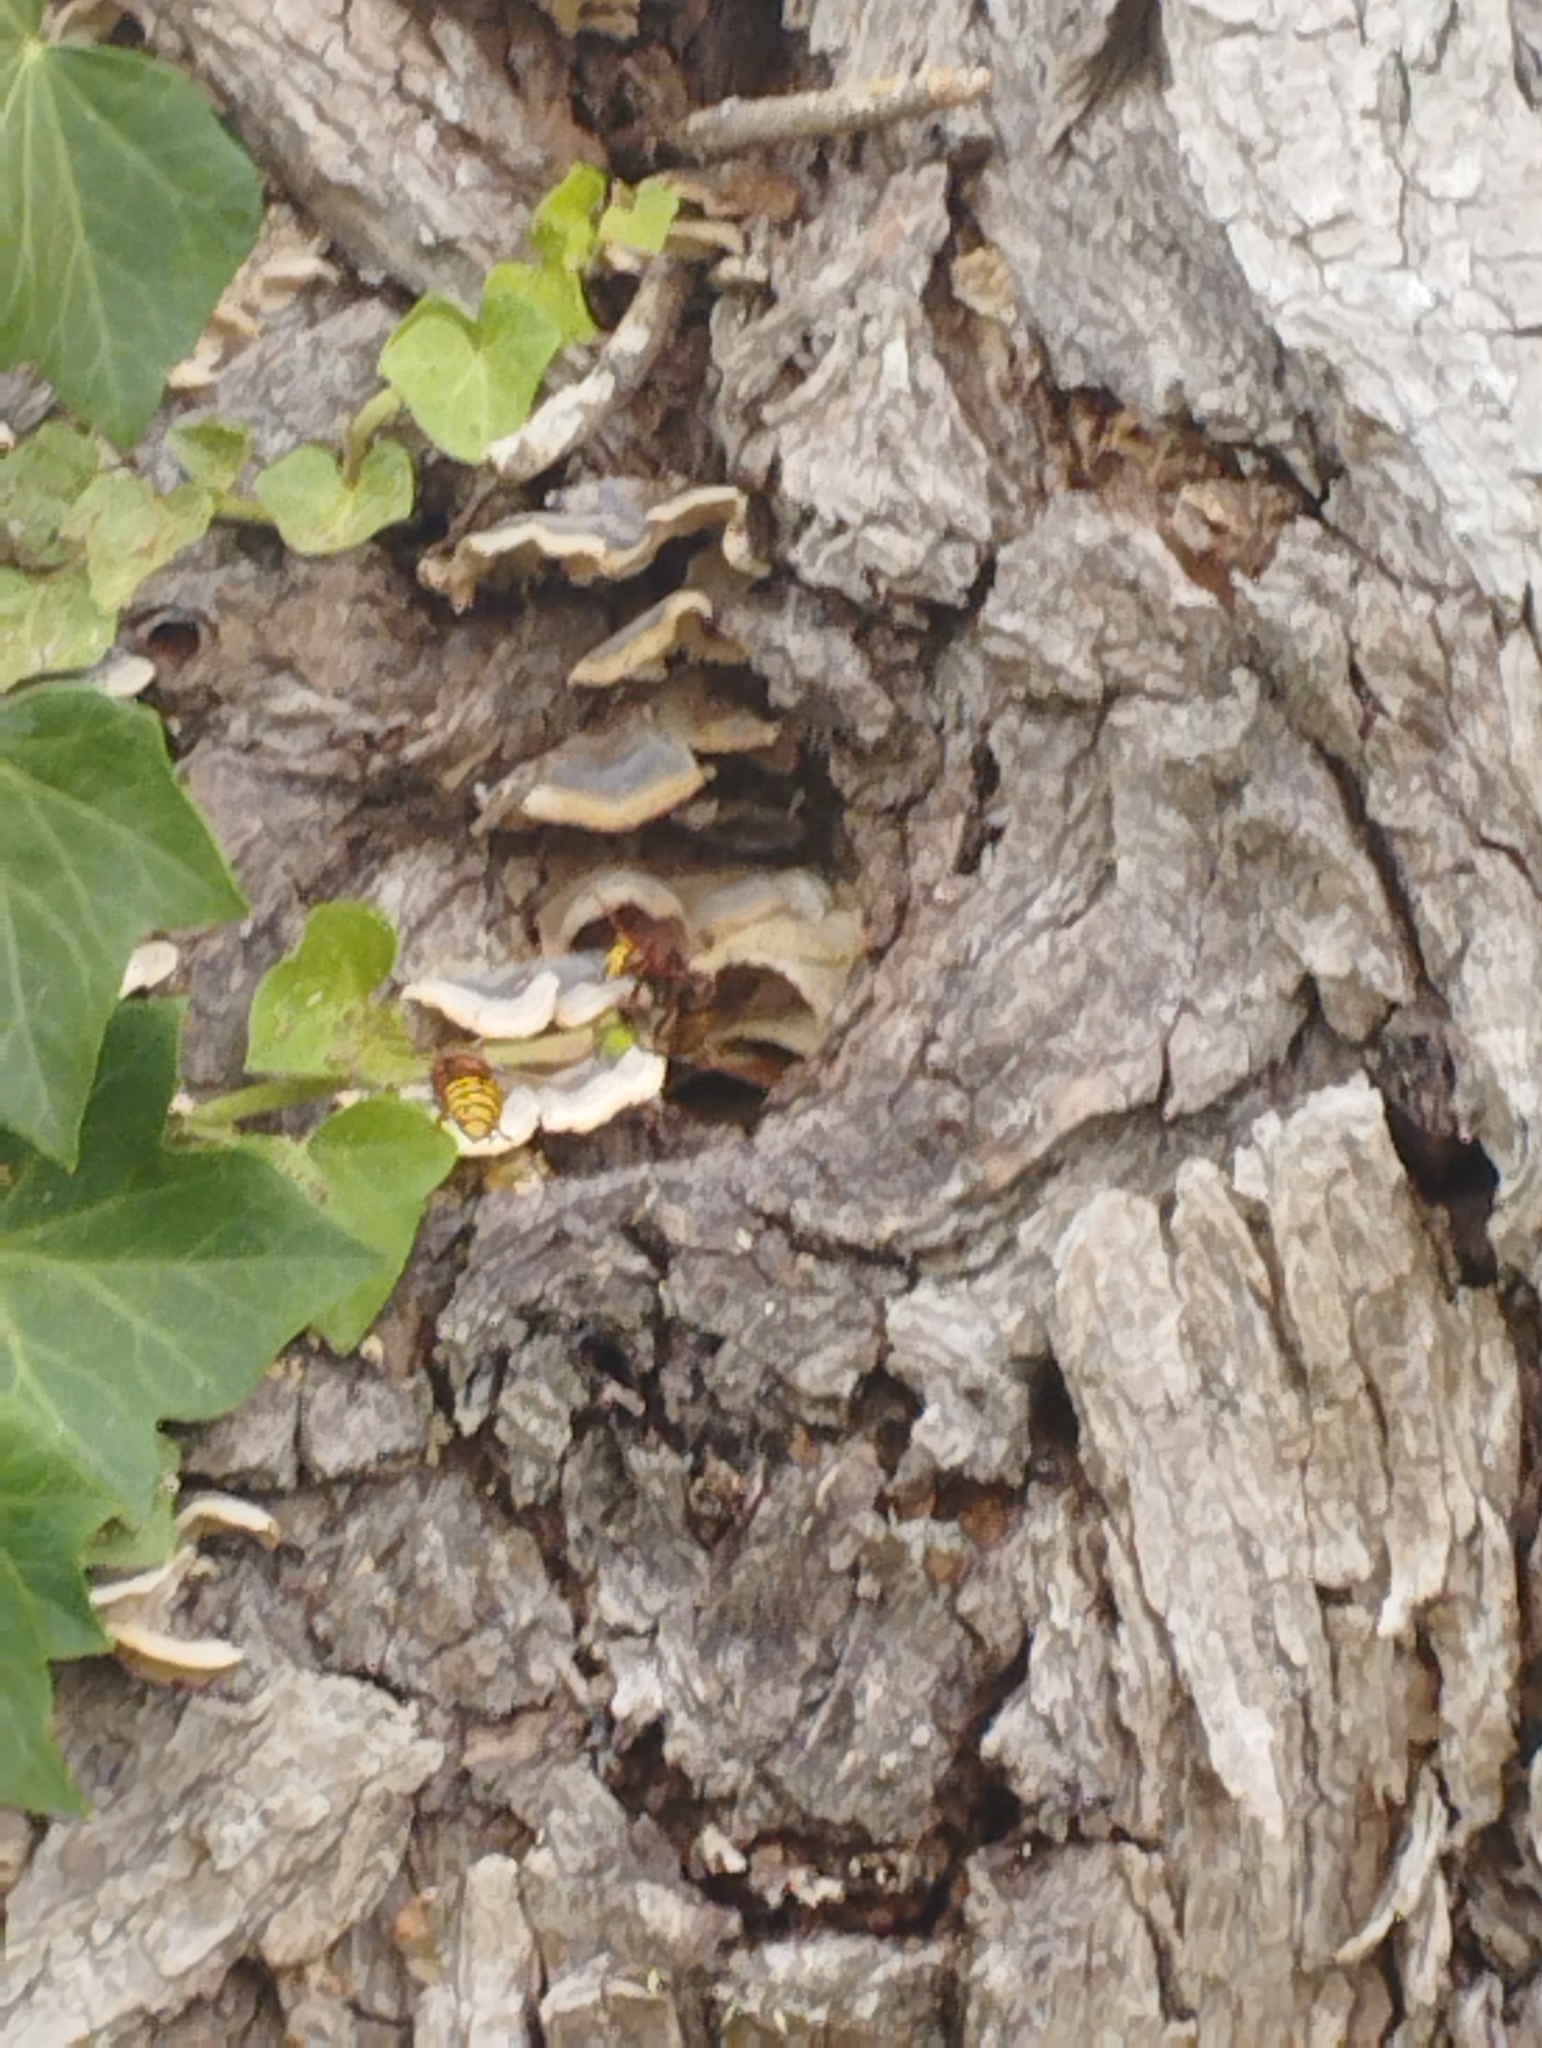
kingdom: Animalia
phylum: Arthropoda
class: Insecta
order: Hymenoptera
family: Vespidae
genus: Vespa
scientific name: Vespa crabro
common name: Hornet
